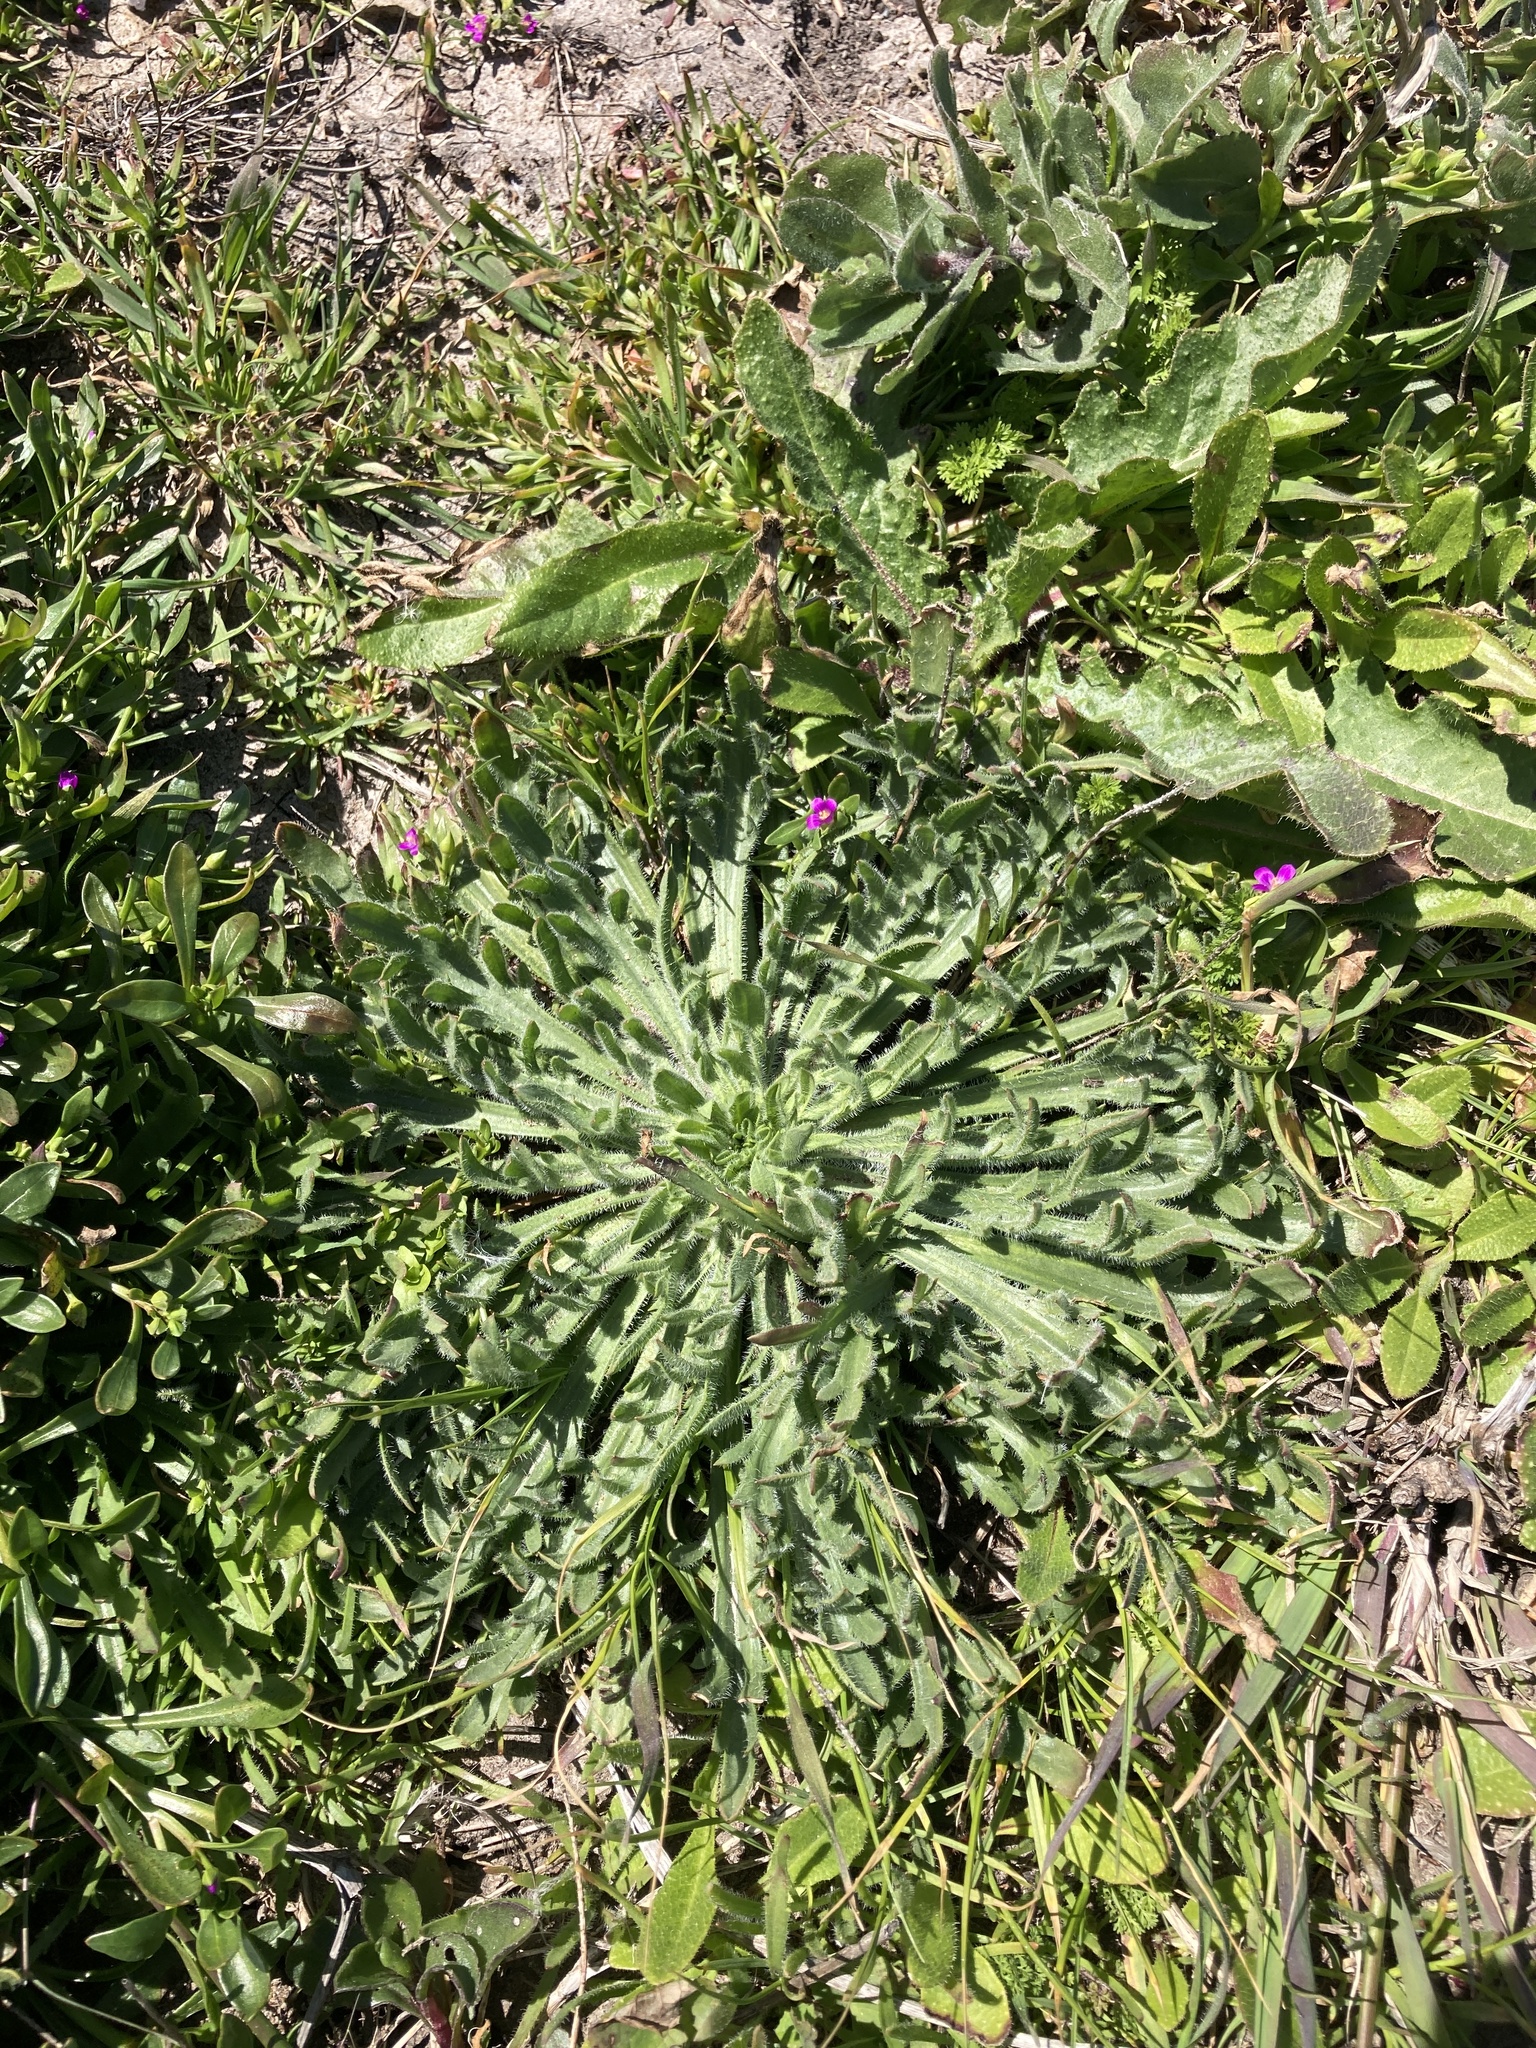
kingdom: Plantae
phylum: Tracheophyta
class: Magnoliopsida
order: Lamiales
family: Plantaginaceae
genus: Plantago
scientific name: Plantago coronopus
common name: Buck's-horn plantain
